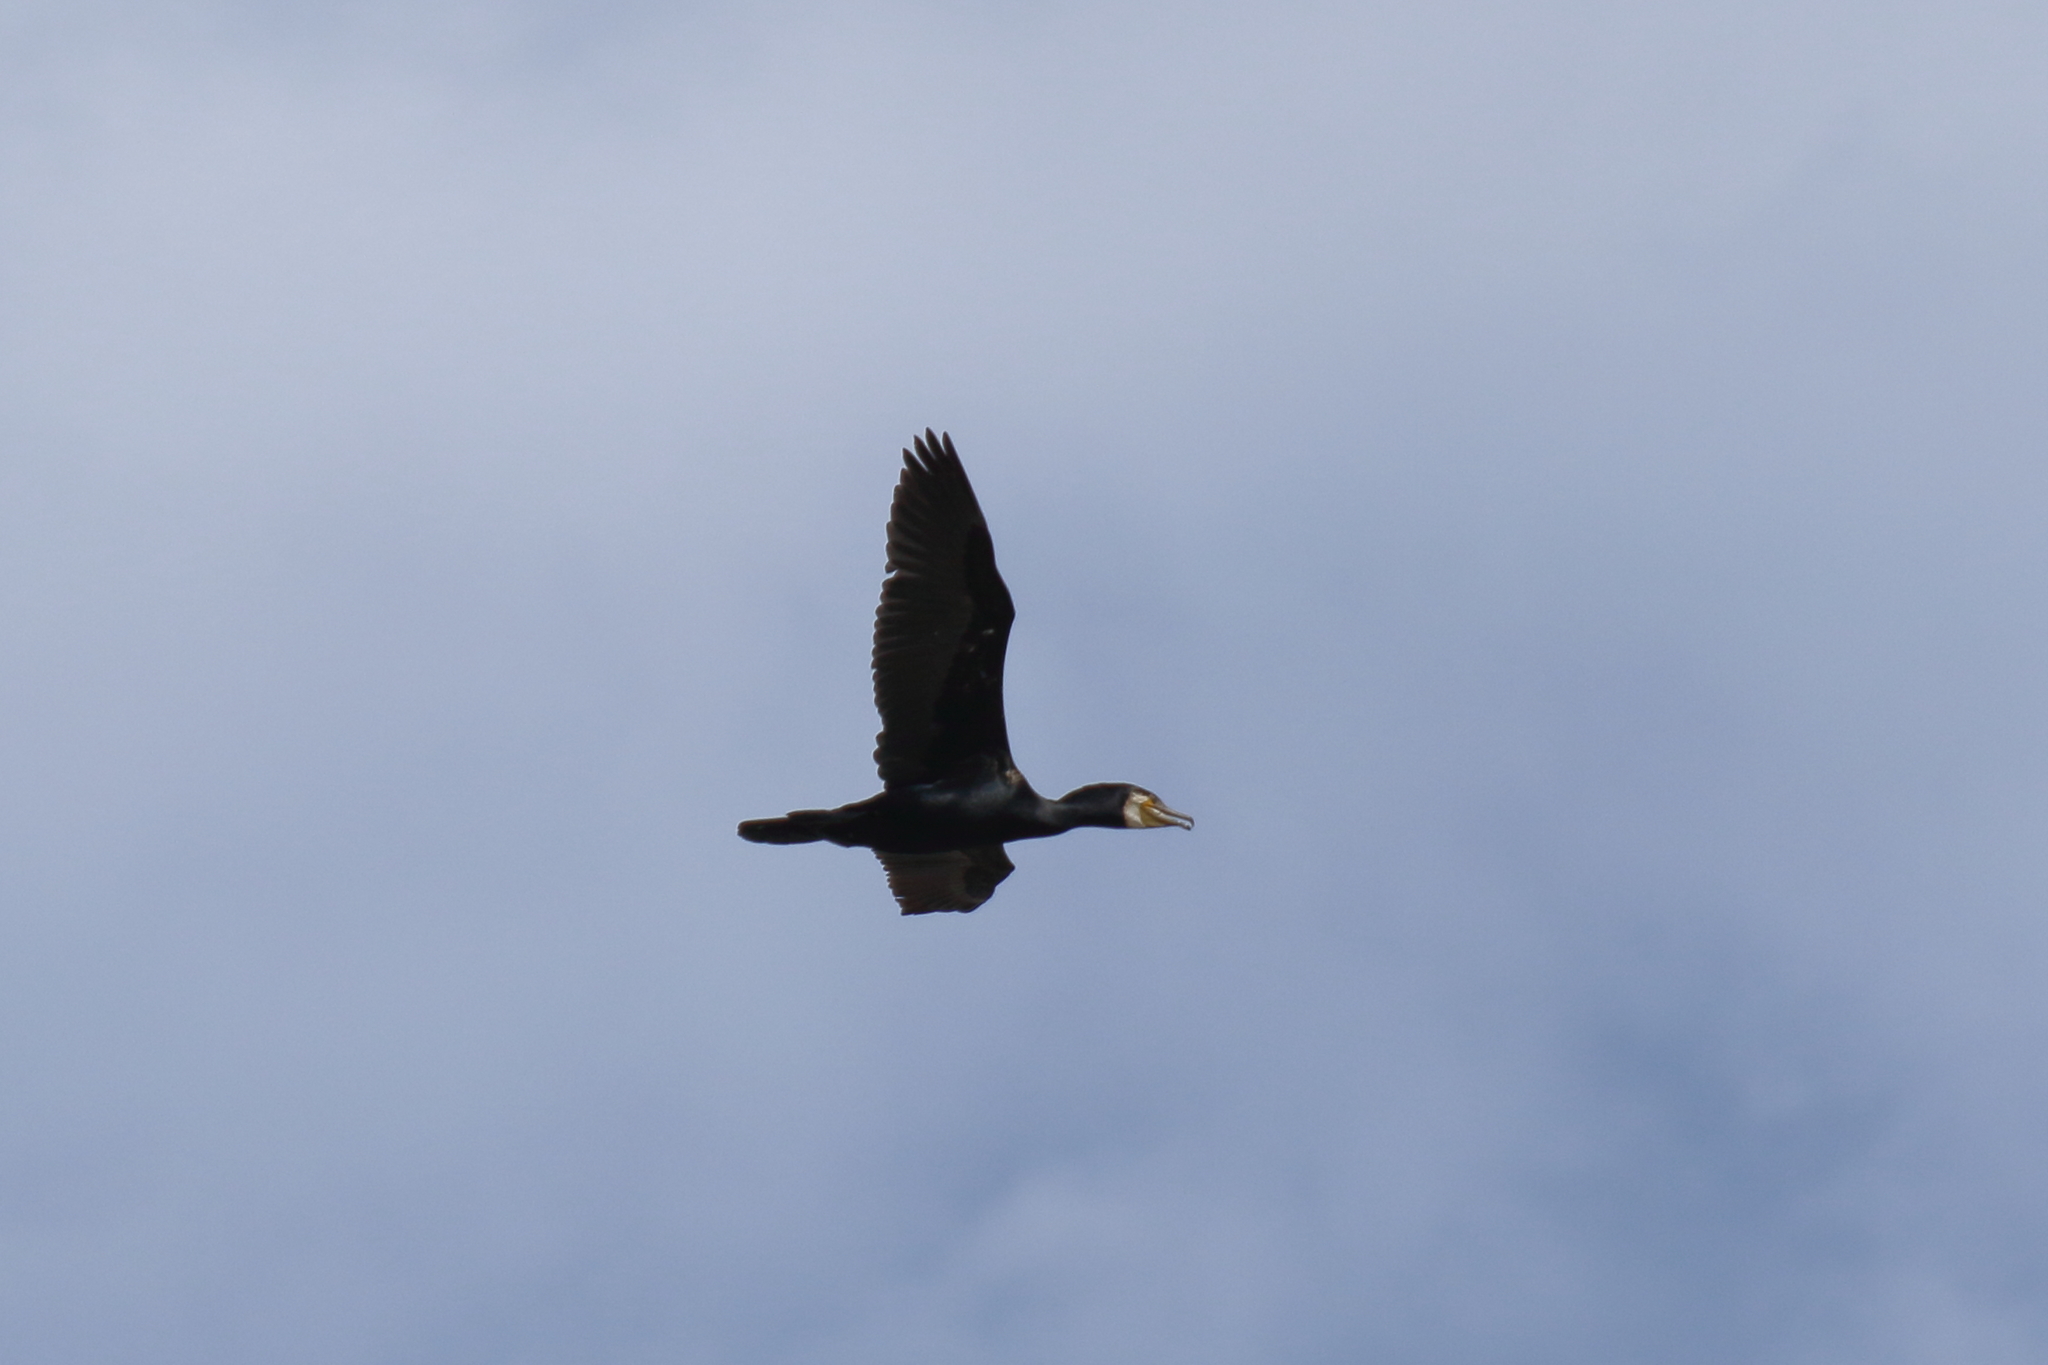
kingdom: Animalia
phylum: Chordata
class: Aves
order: Suliformes
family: Phalacrocoracidae
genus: Phalacrocorax
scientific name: Phalacrocorax carbo
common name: Great cormorant
